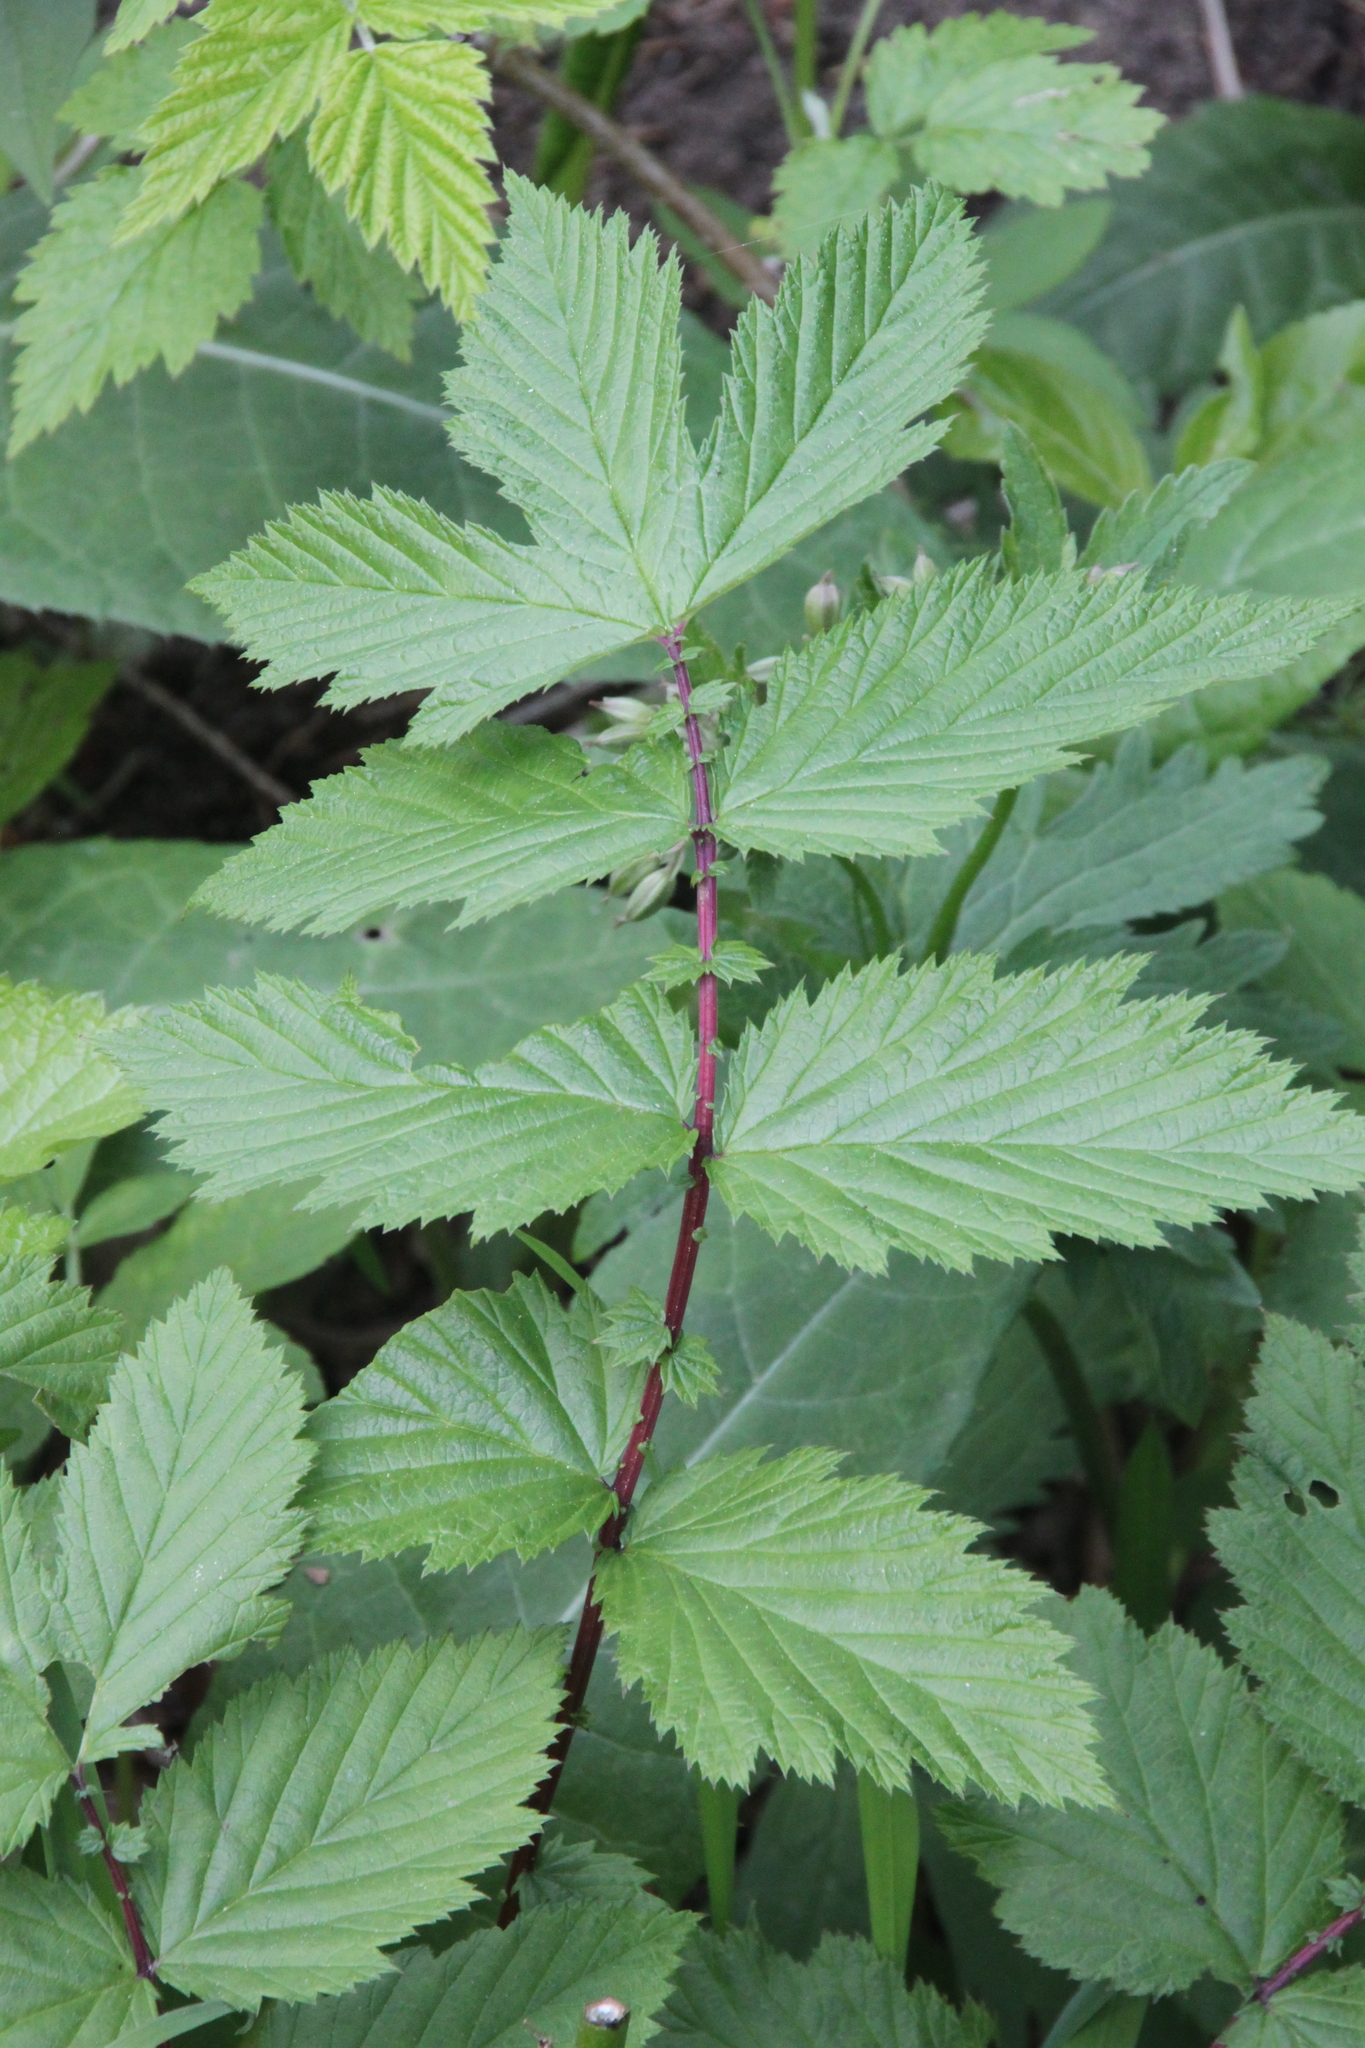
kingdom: Plantae
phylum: Tracheophyta
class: Magnoliopsida
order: Rosales
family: Rosaceae
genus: Filipendula
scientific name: Filipendula ulmaria
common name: Meadowsweet
